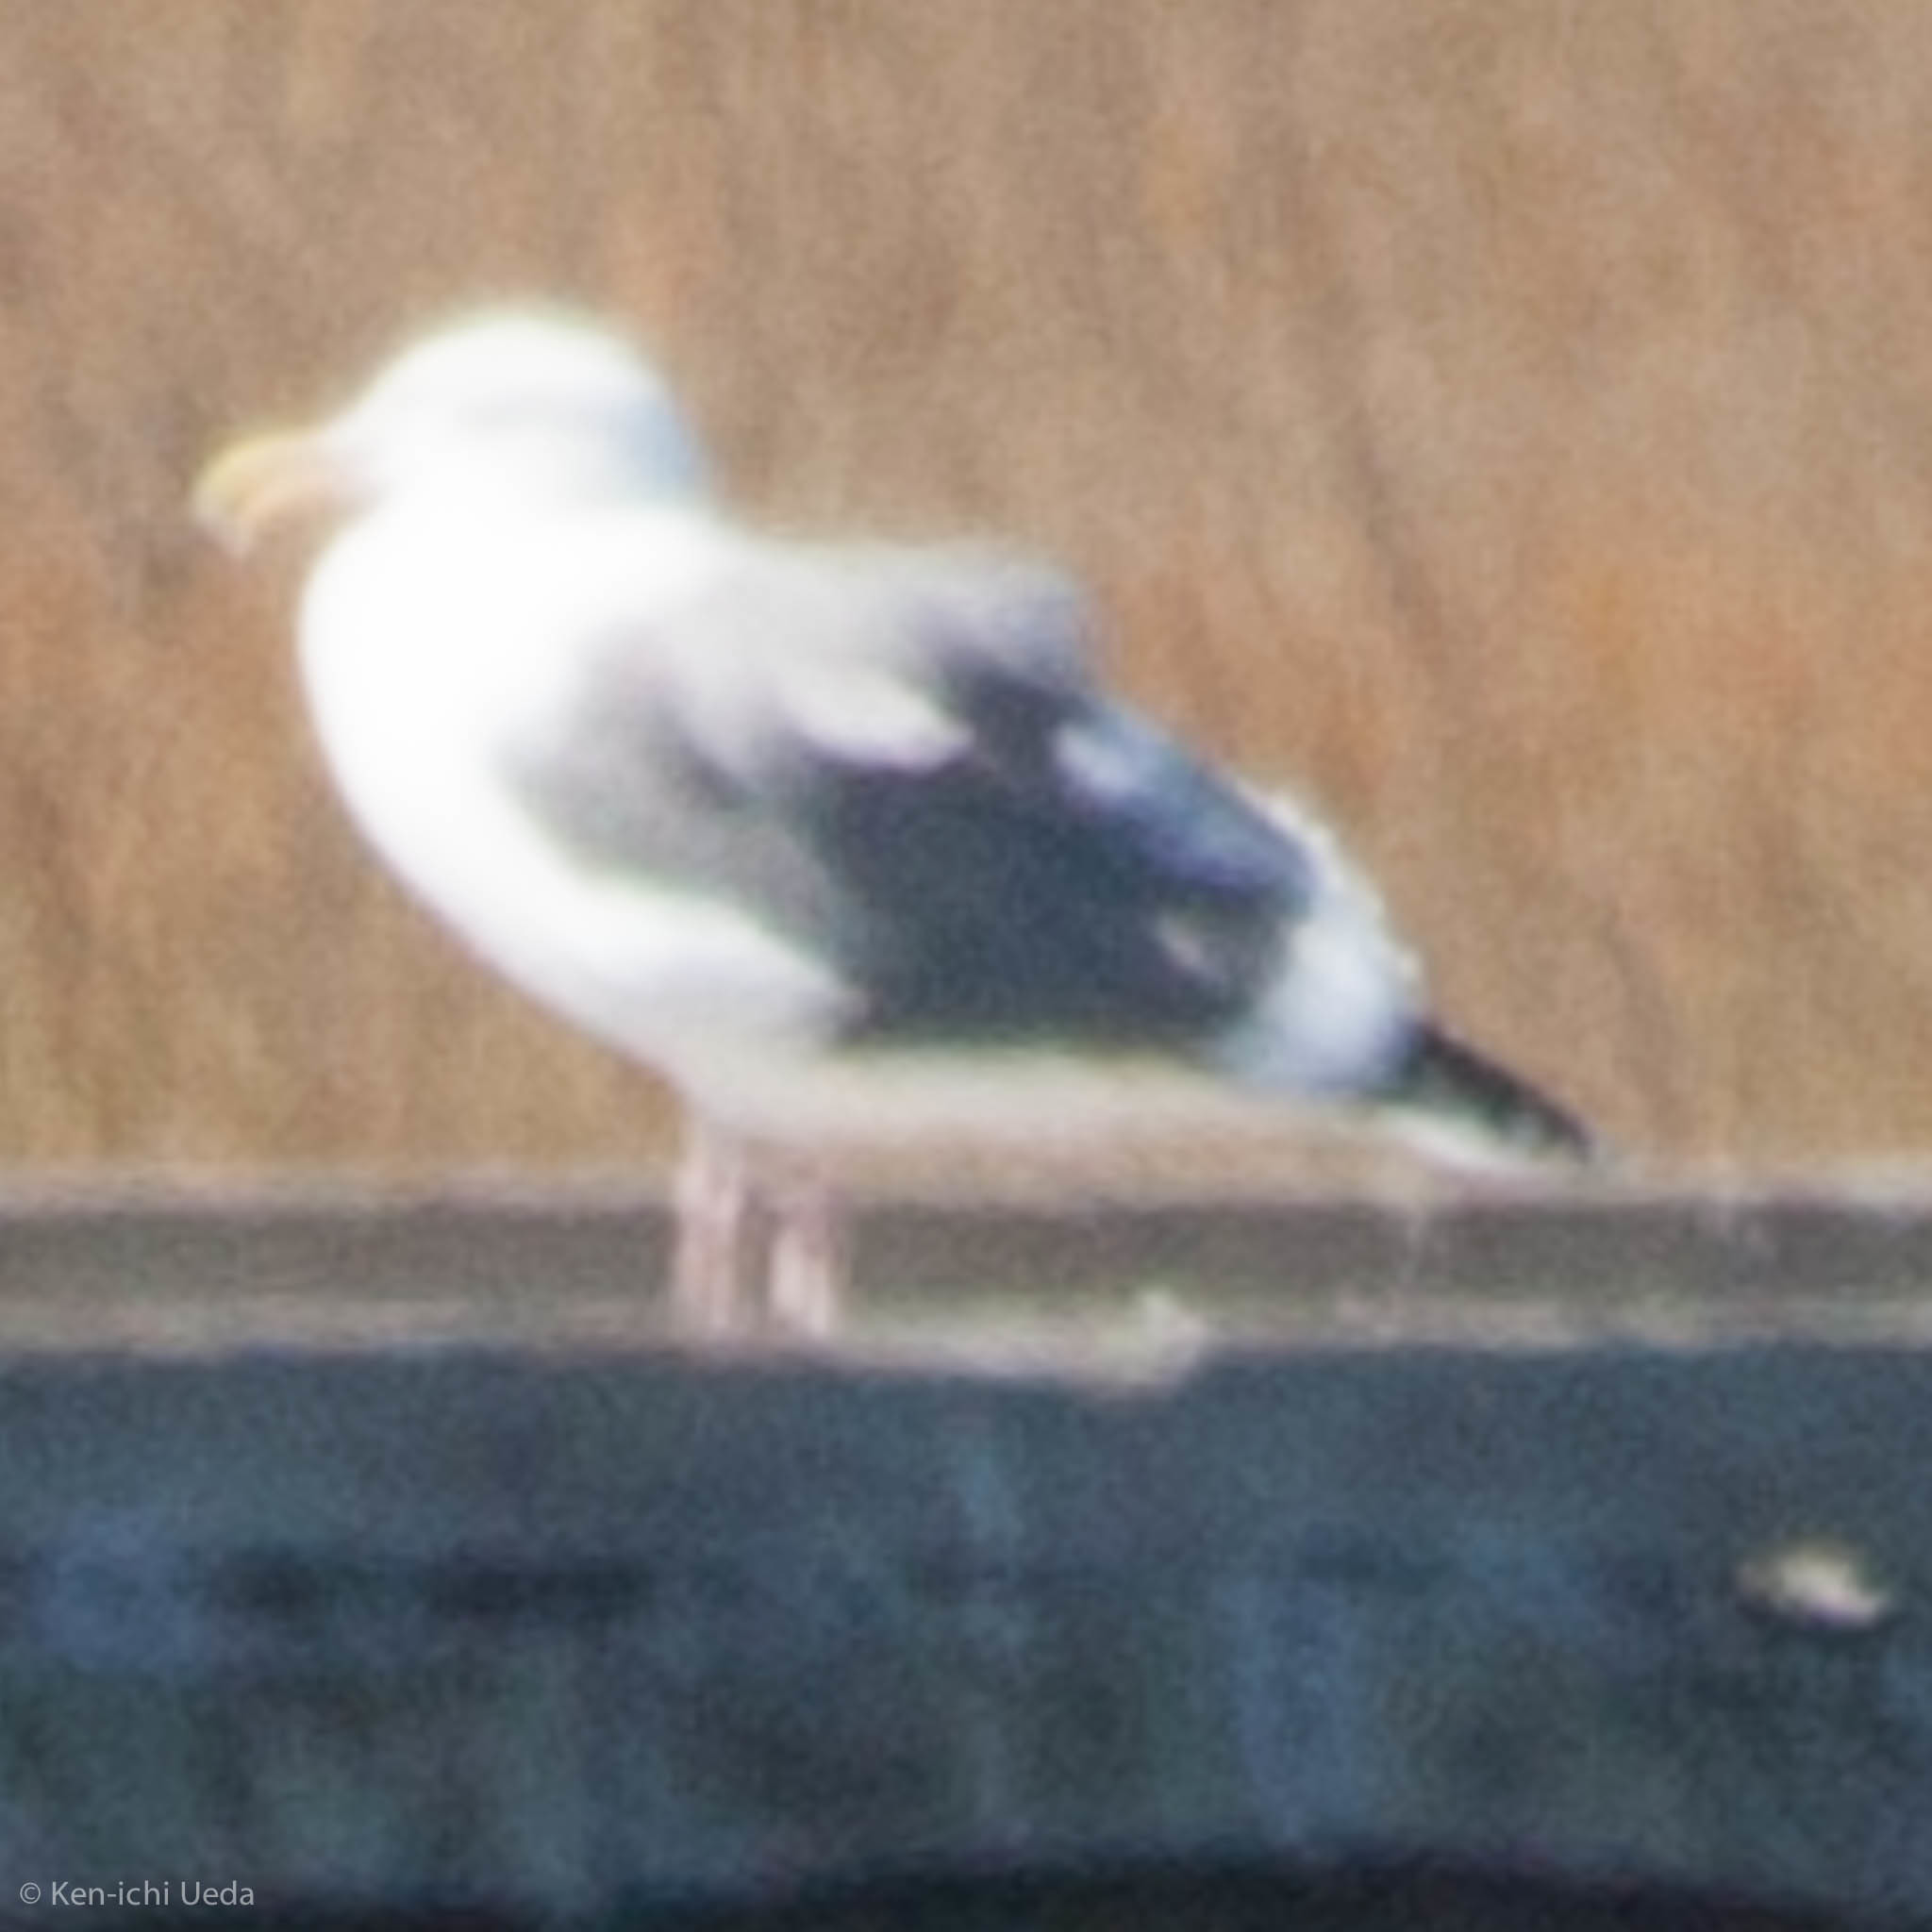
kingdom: Animalia
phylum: Chordata
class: Aves
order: Charadriiformes
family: Laridae
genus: Larus
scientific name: Larus occidentalis
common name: Western gull
